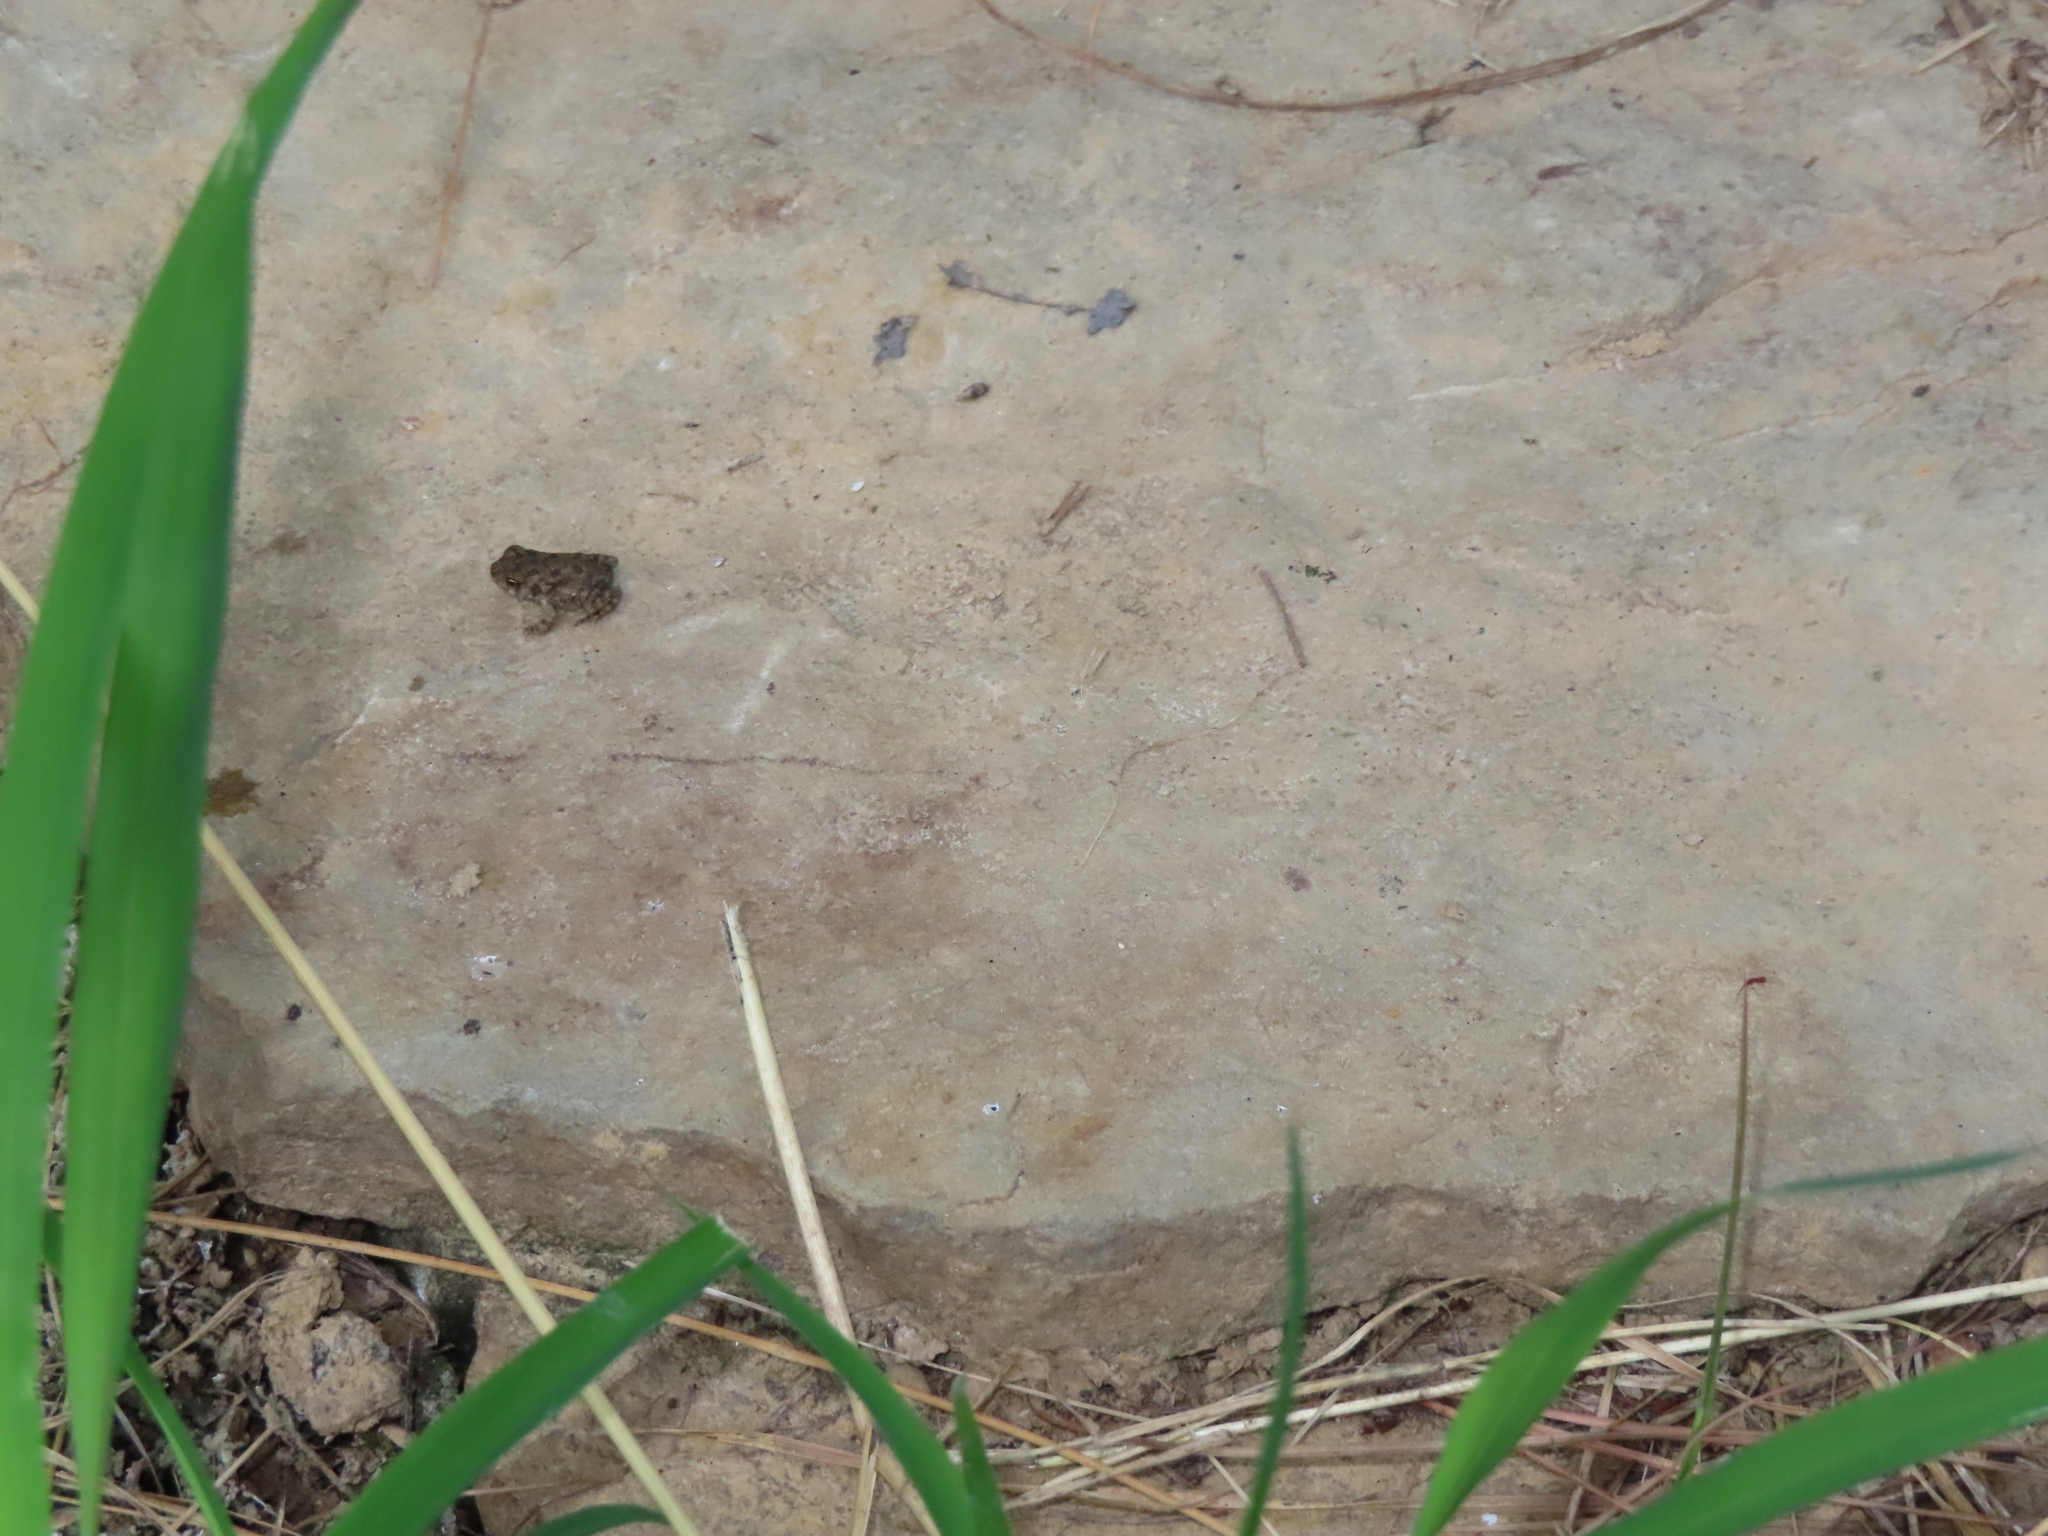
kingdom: Animalia
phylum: Chordata
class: Amphibia
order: Anura
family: Bufonidae
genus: Anaxyrus
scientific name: Anaxyrus fowleri
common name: Fowler's toad
